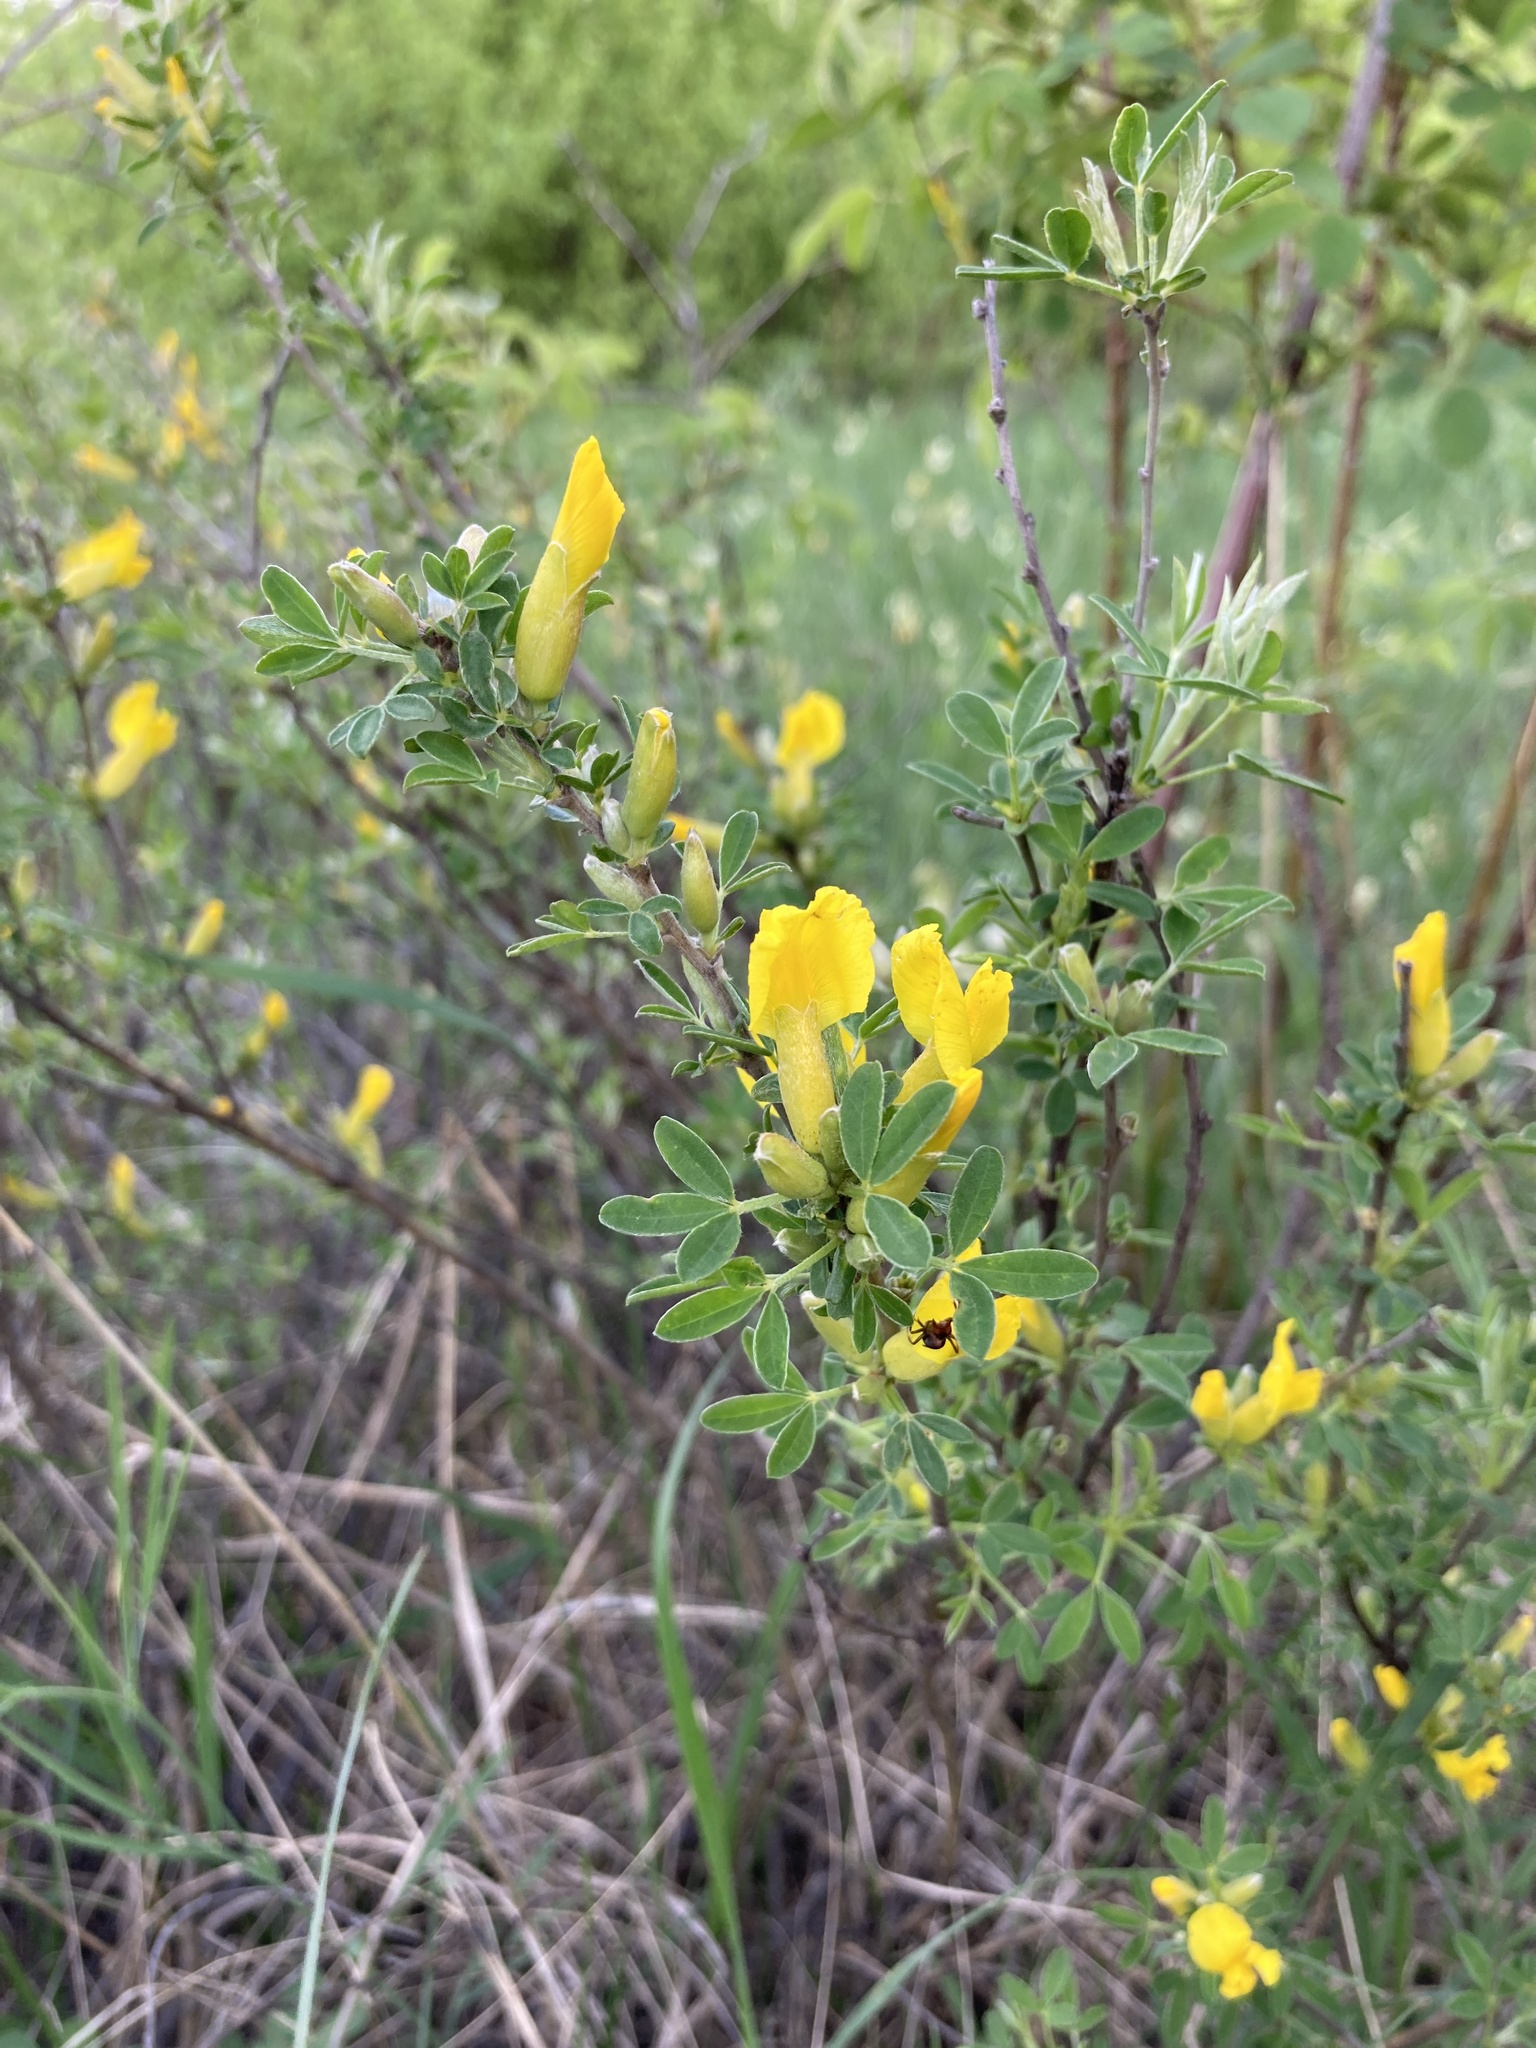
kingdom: Plantae
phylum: Tracheophyta
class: Magnoliopsida
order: Fabales
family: Fabaceae
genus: Chamaecytisus
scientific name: Chamaecytisus ruthenicus
